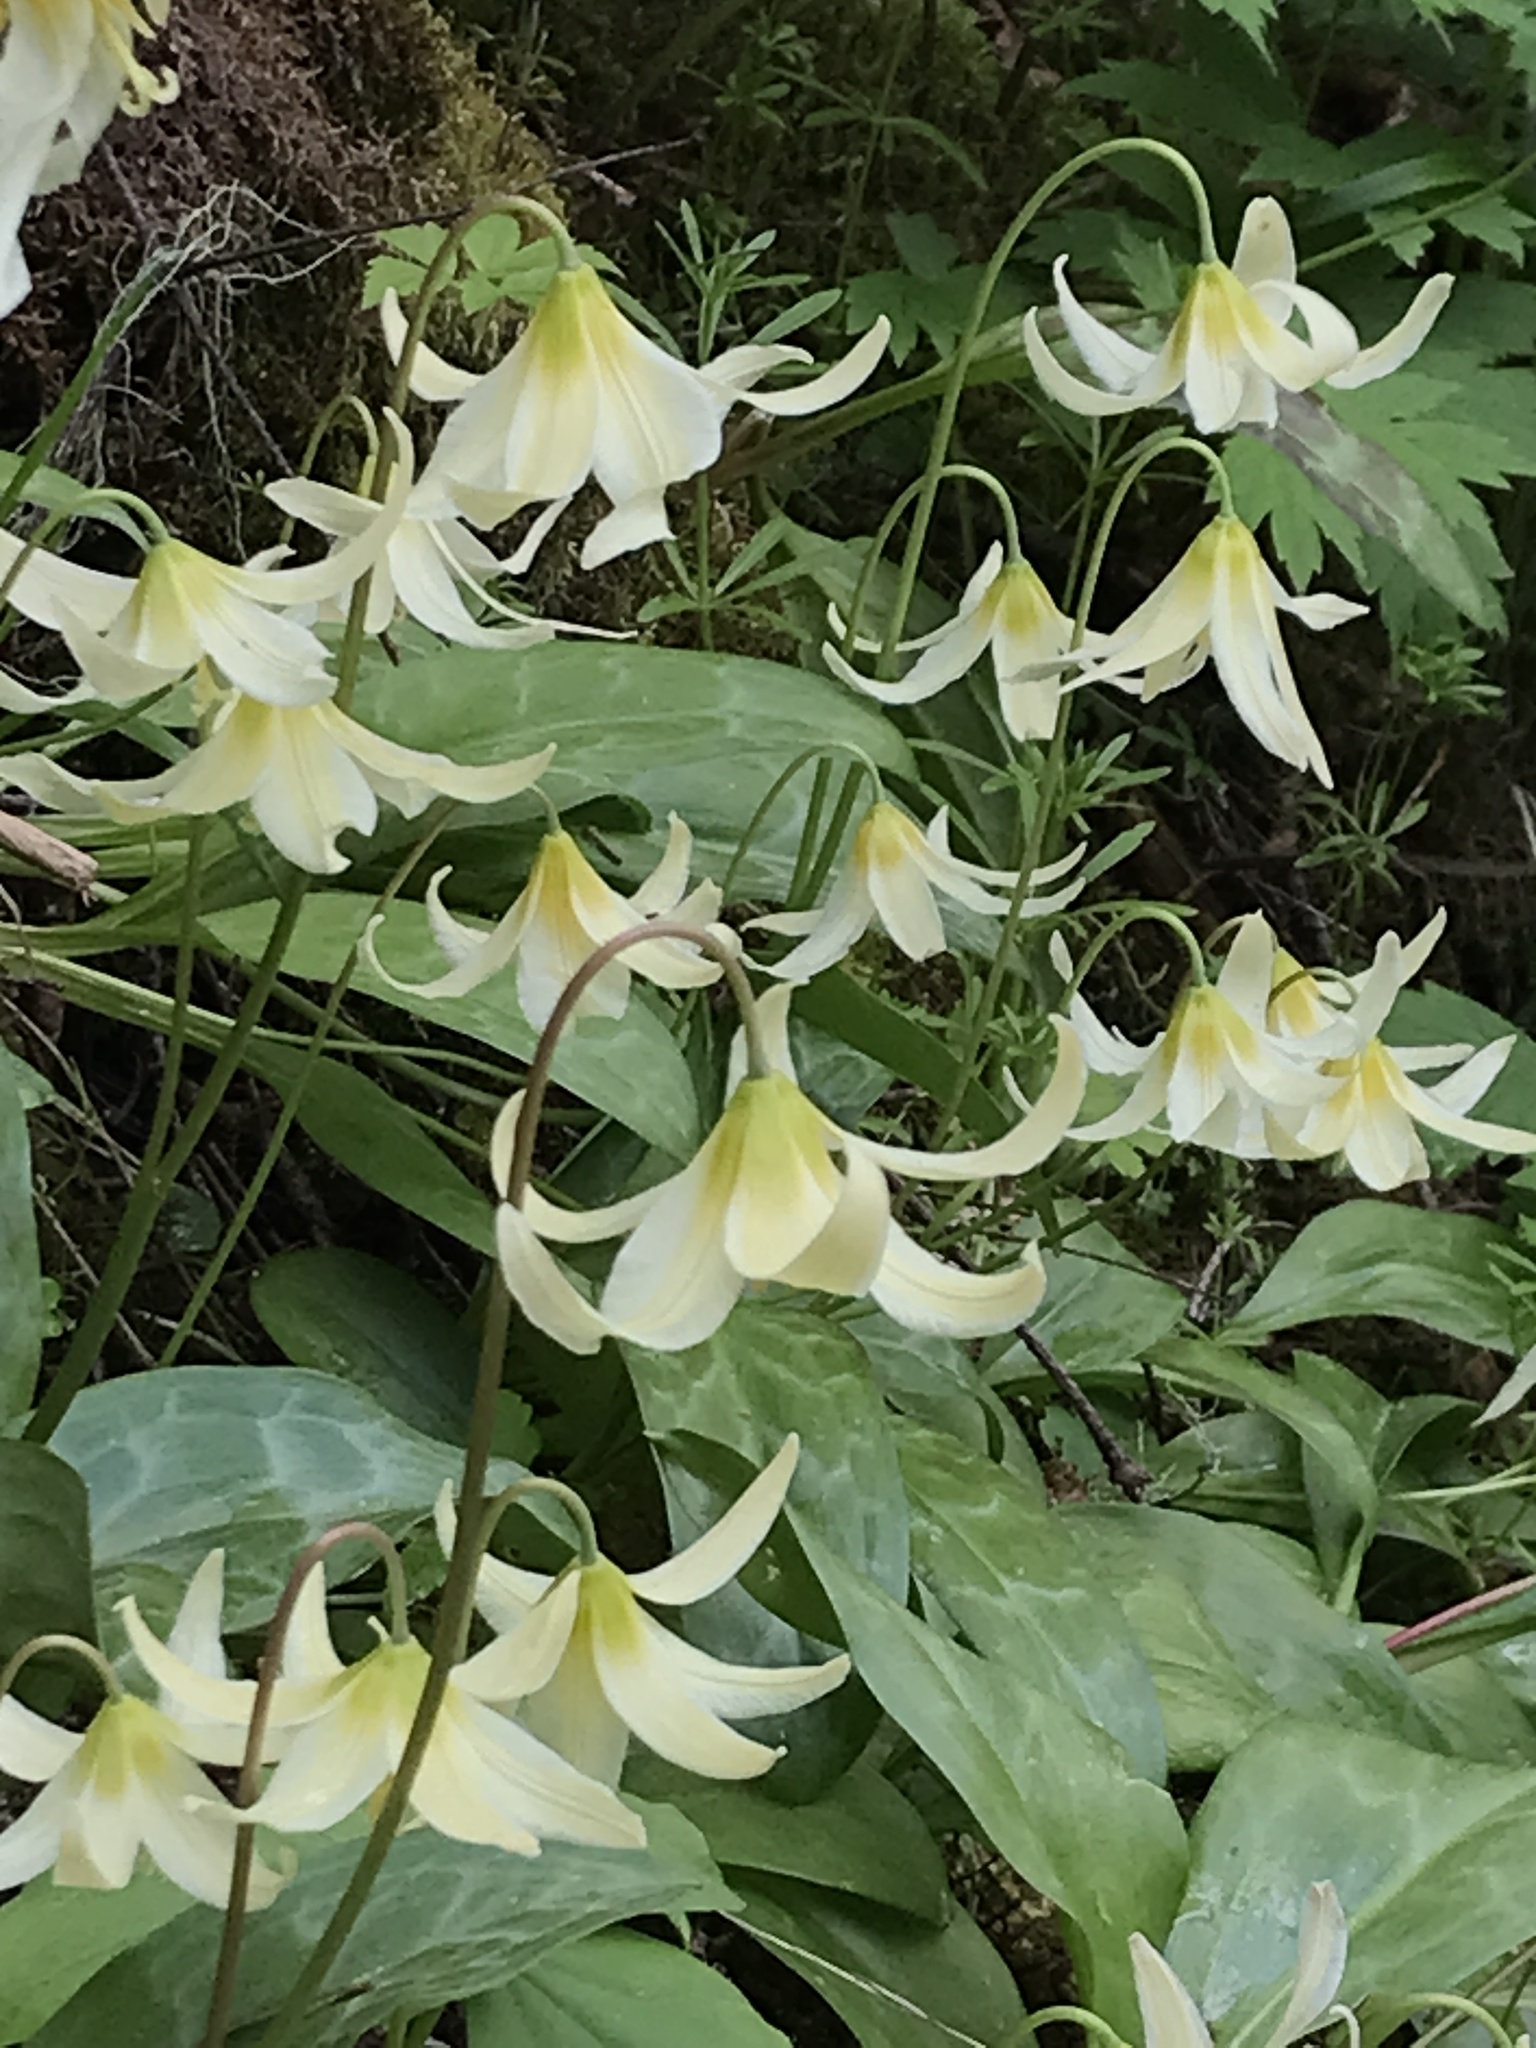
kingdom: Plantae
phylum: Tracheophyta
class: Liliopsida
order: Liliales
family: Liliaceae
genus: Erythronium
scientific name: Erythronium oregonum
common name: Giant adder's-tongue
